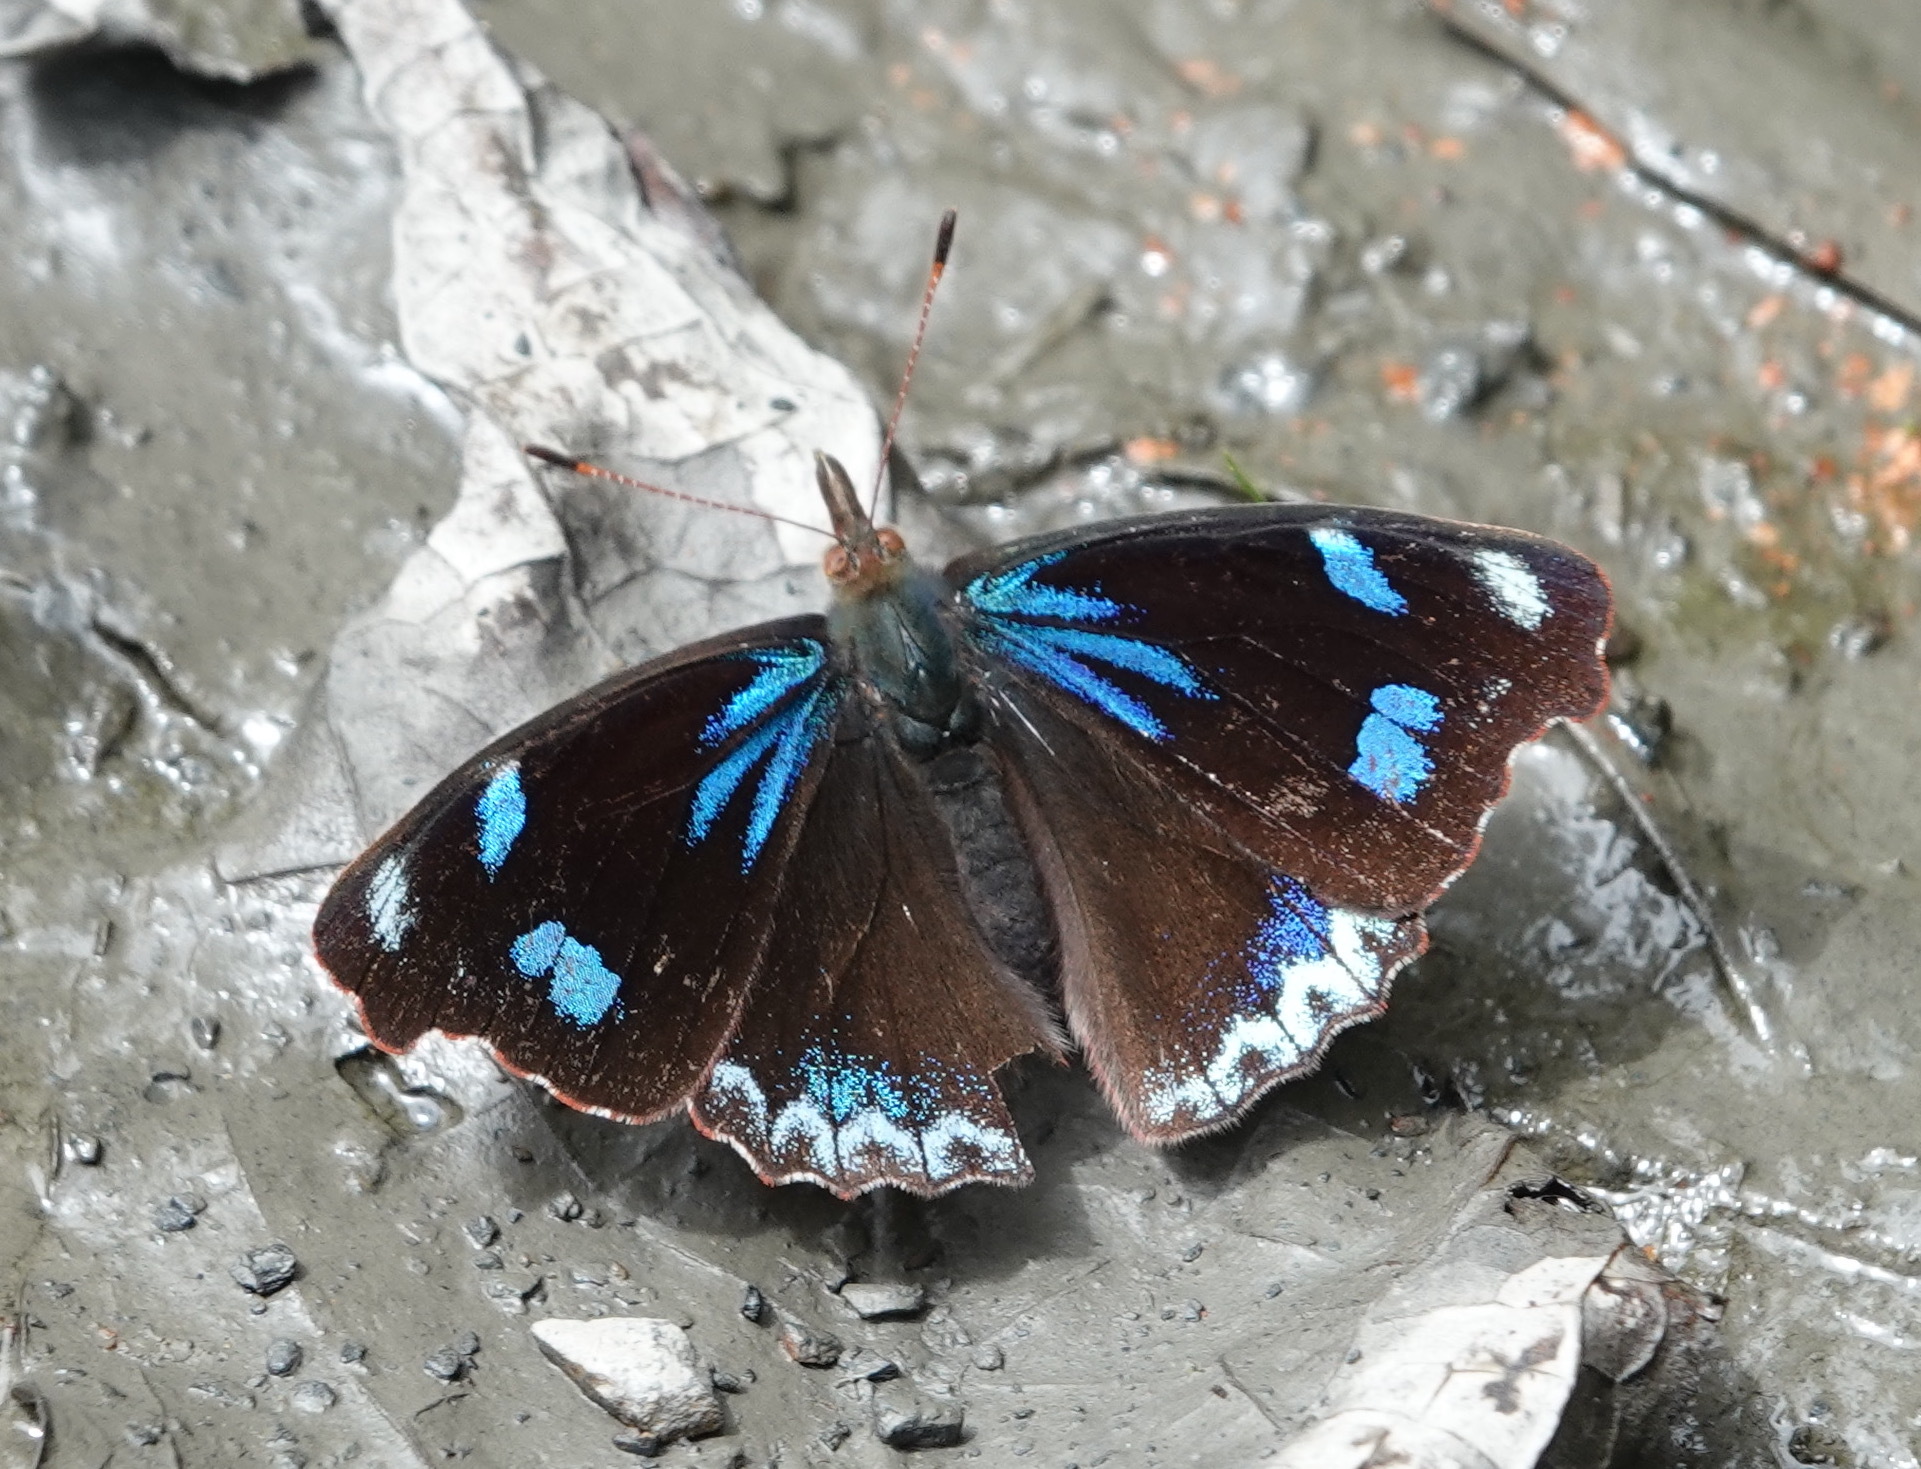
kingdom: Animalia
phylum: Arthropoda
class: Insecta
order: Lepidoptera
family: Nymphalidae
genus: Perisama
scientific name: Perisama diotima
